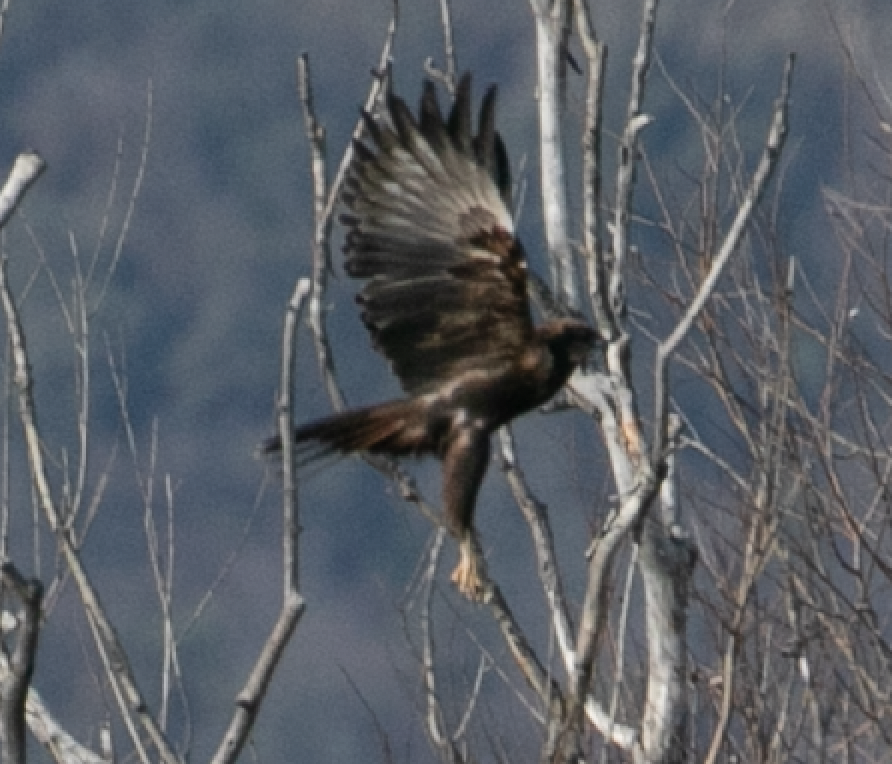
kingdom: Animalia
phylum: Chordata
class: Aves
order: Accipitriformes
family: Accipitridae
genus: Circus
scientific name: Circus aeruginosus
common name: Western marsh harrier
